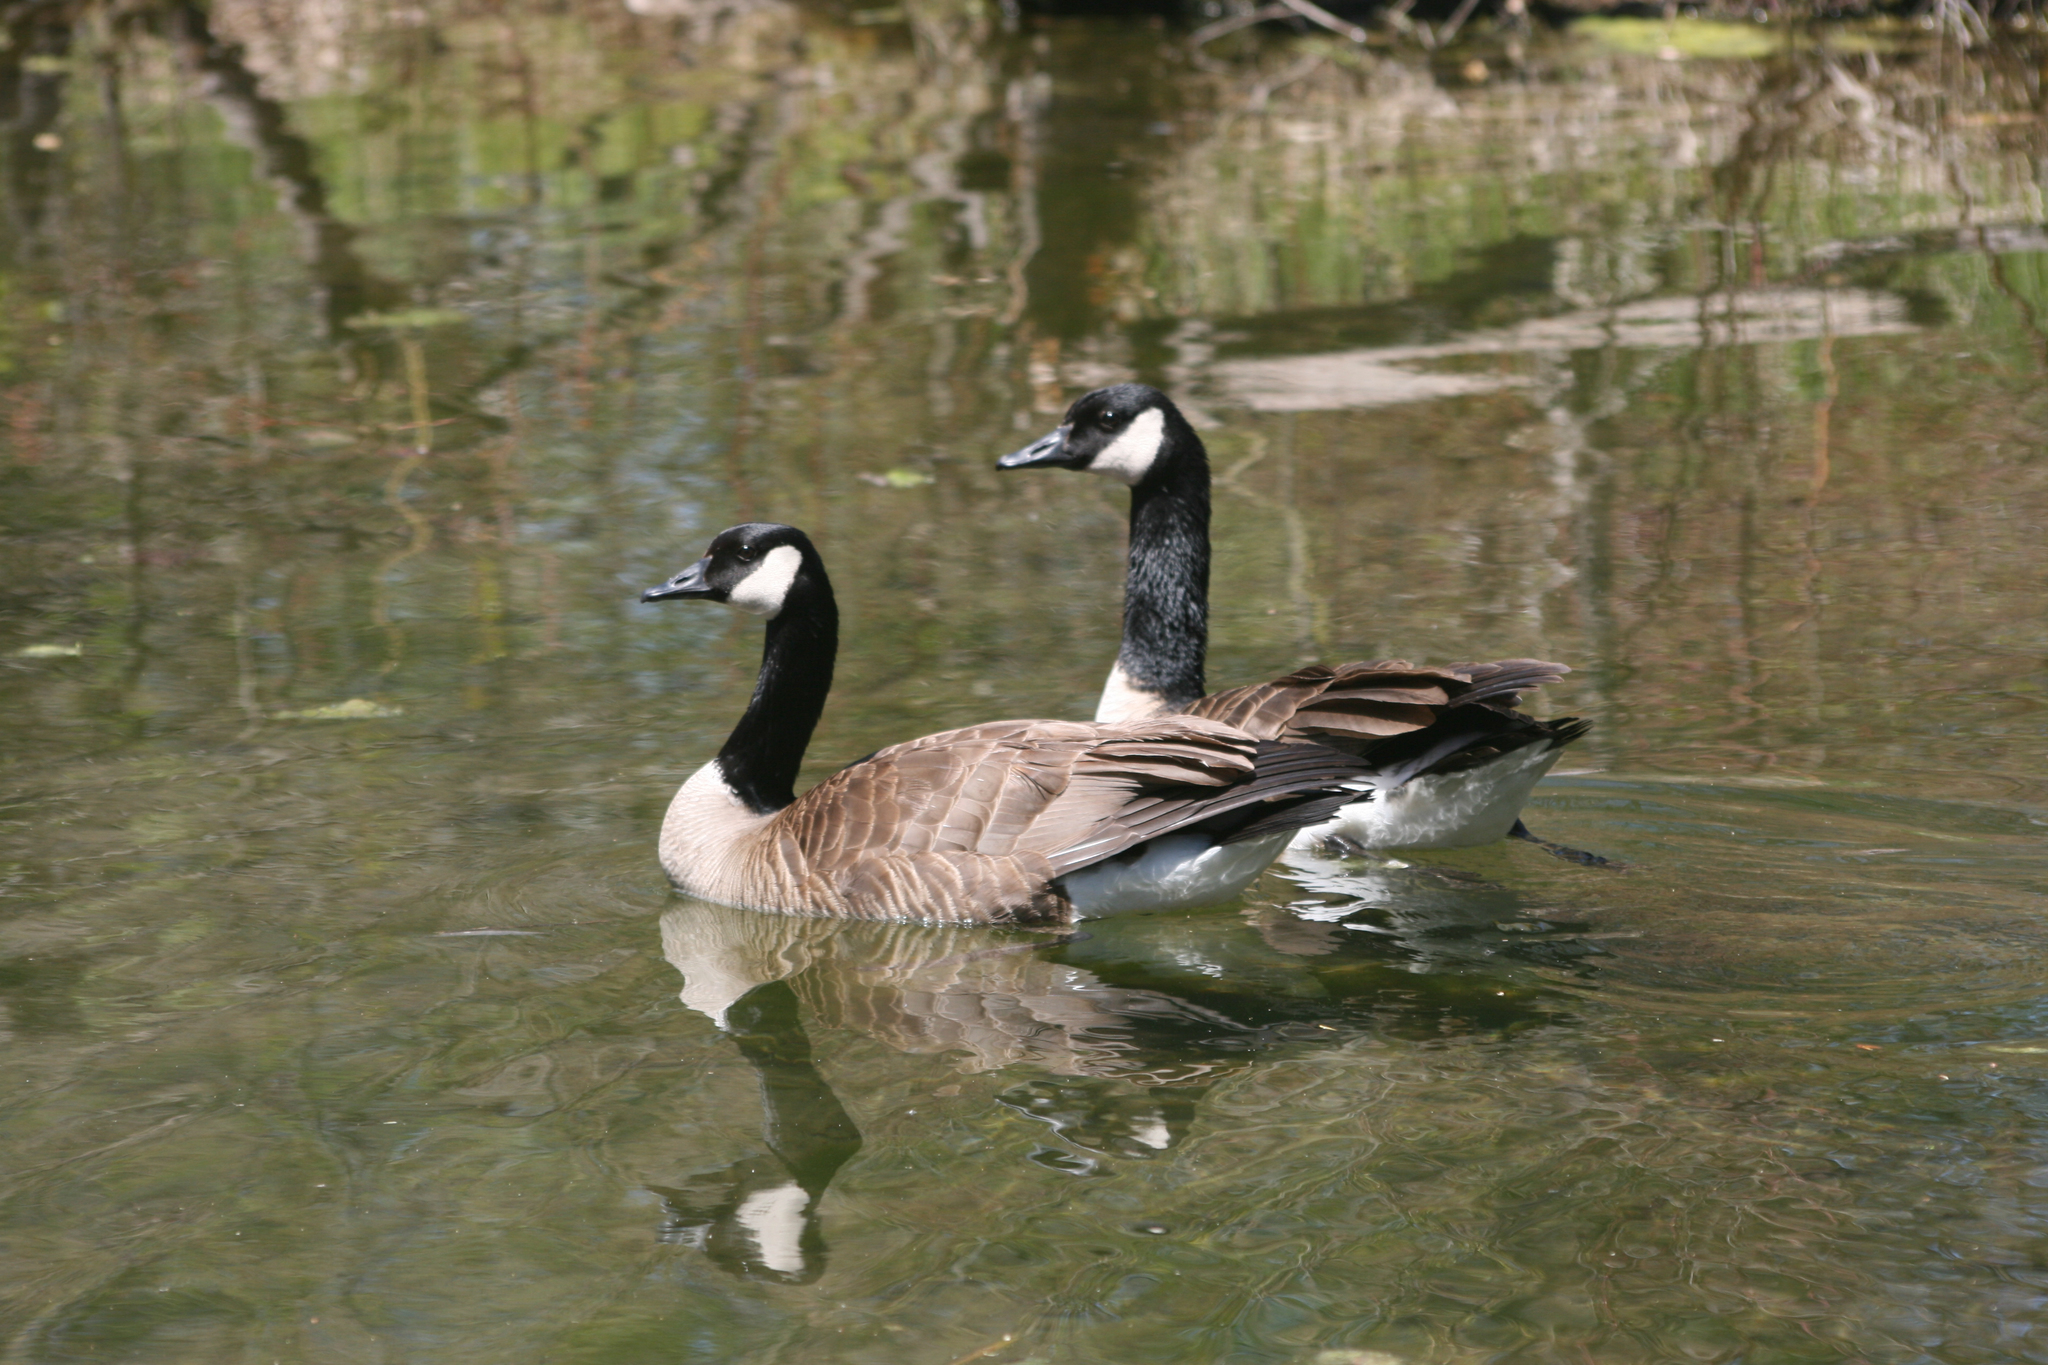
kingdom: Animalia
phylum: Chordata
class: Aves
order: Anseriformes
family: Anatidae
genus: Branta
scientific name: Branta canadensis
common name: Canada goose
